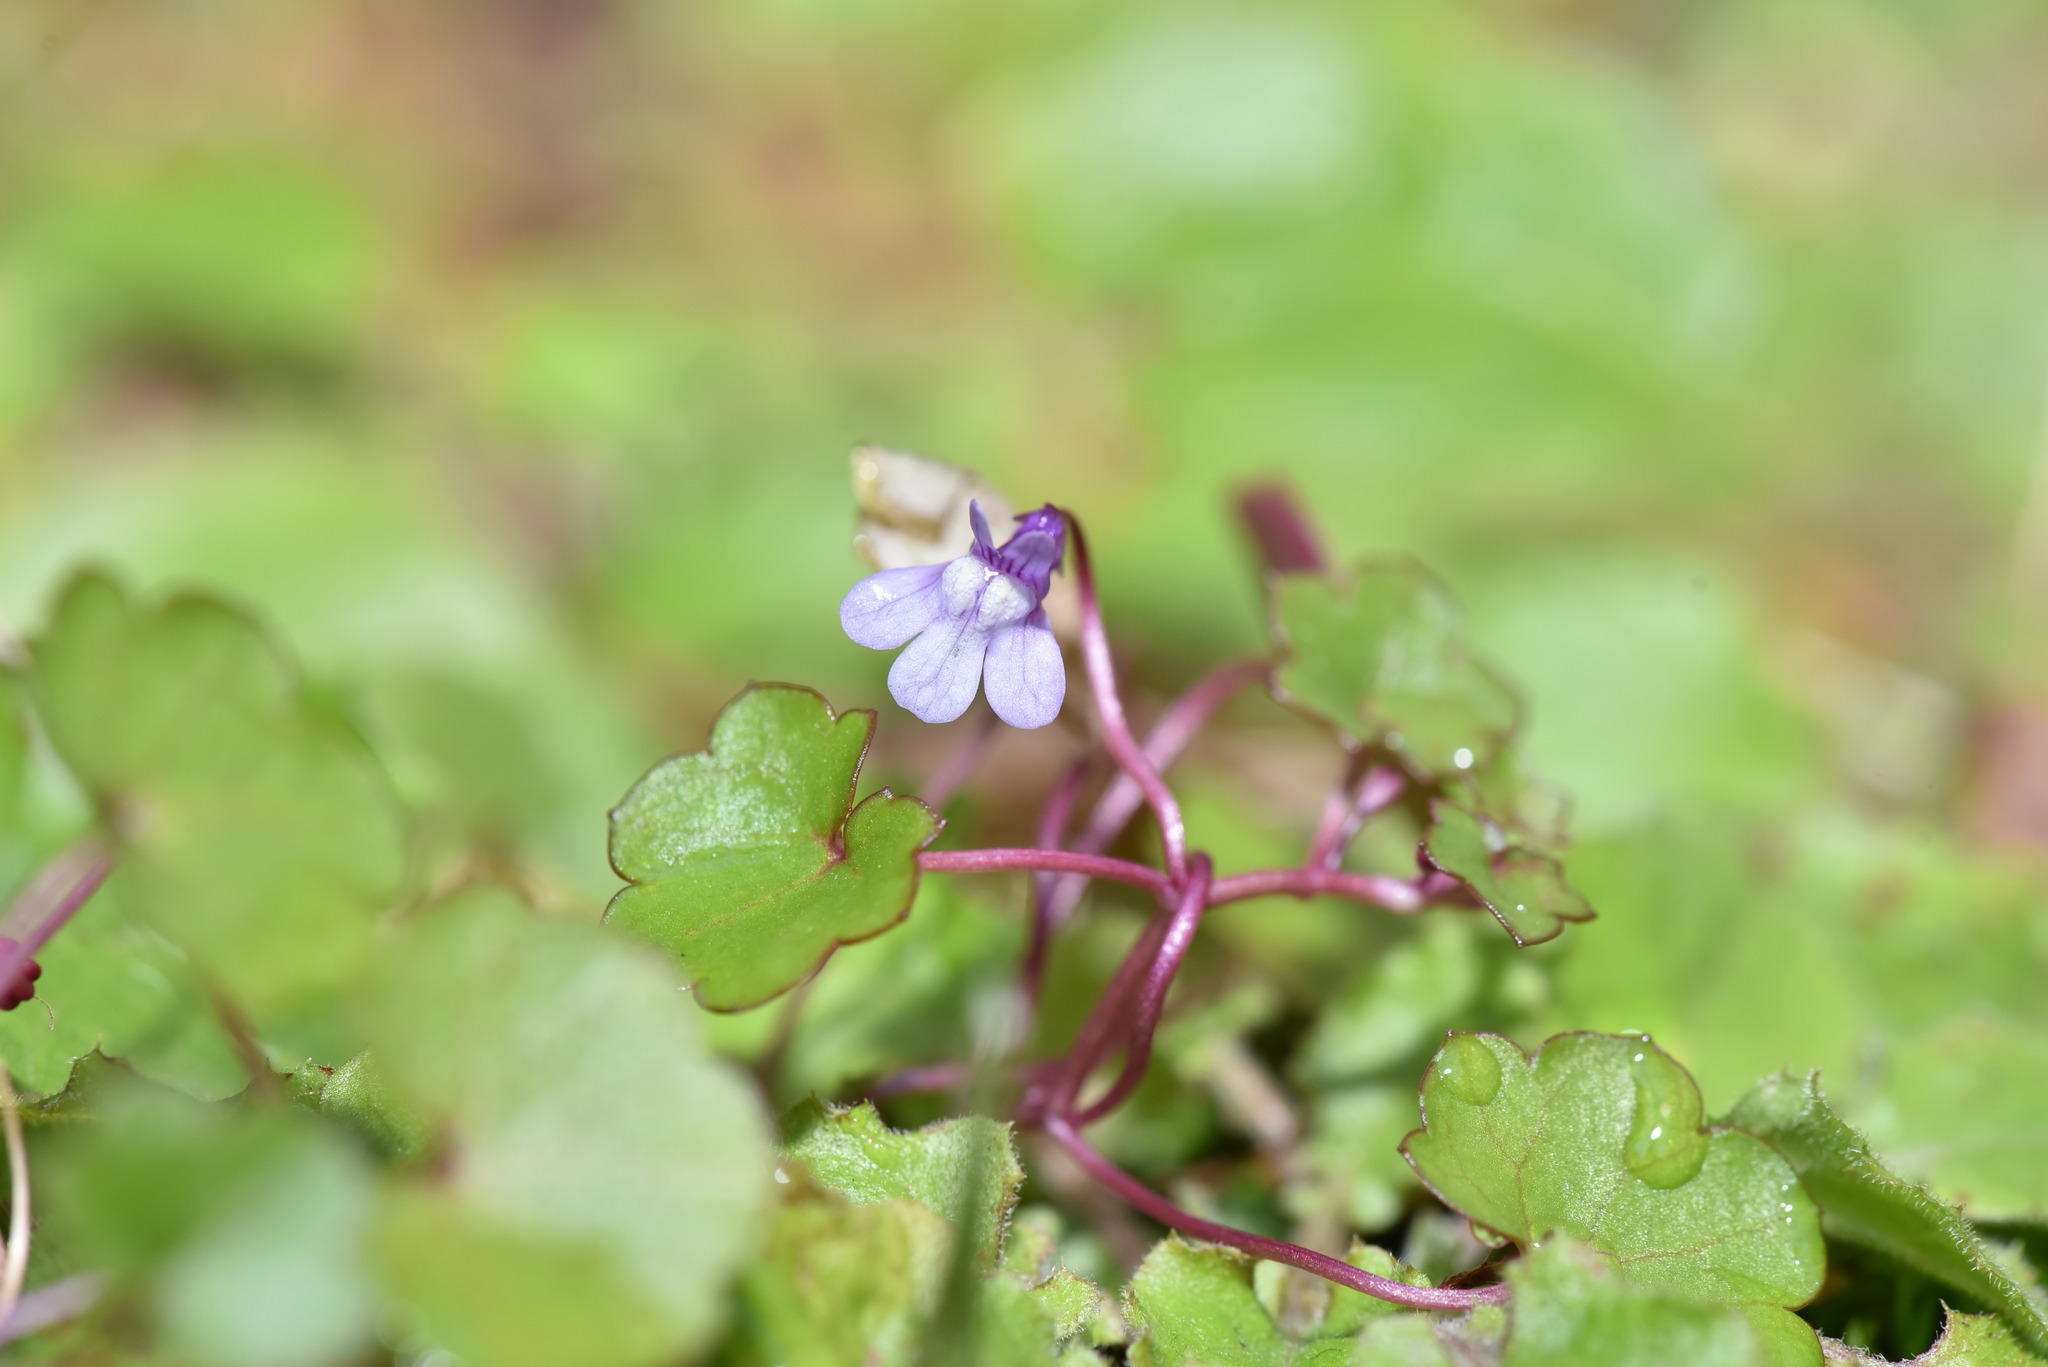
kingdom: Plantae
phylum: Tracheophyta
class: Magnoliopsida
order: Lamiales
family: Plantaginaceae
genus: Cymbalaria
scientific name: Cymbalaria muralis
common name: Ivy-leaved toadflax
